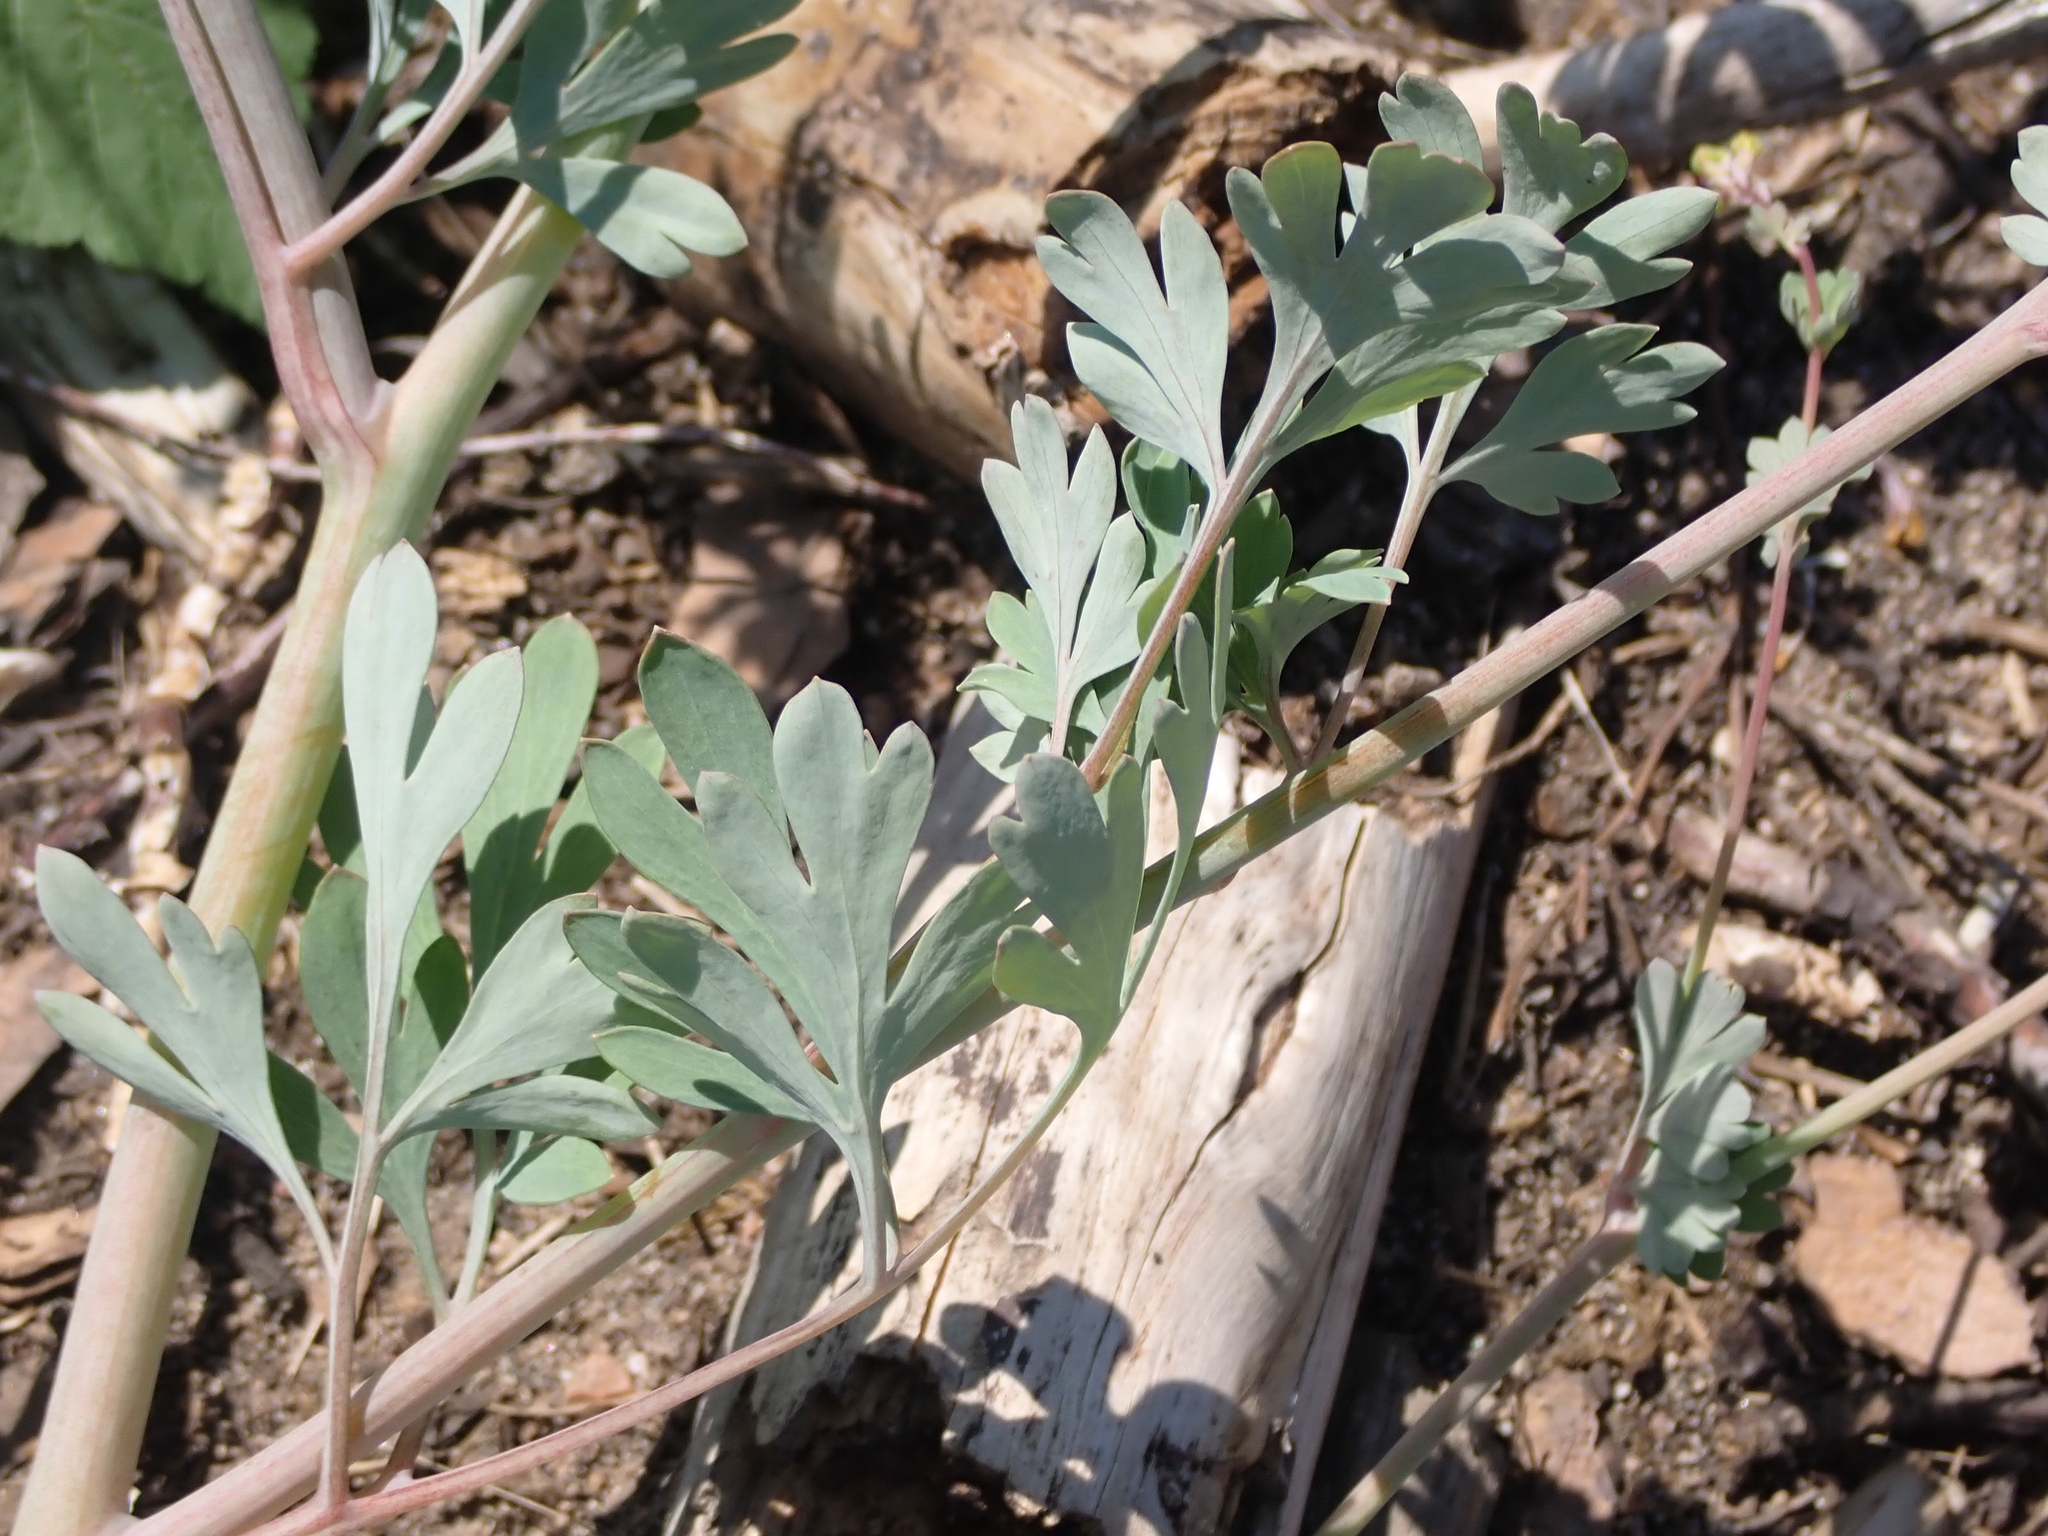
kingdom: Plantae
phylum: Tracheophyta
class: Magnoliopsida
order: Ranunculales
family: Papaveraceae
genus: Capnoides
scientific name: Capnoides sempervirens
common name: Rock harlequin
